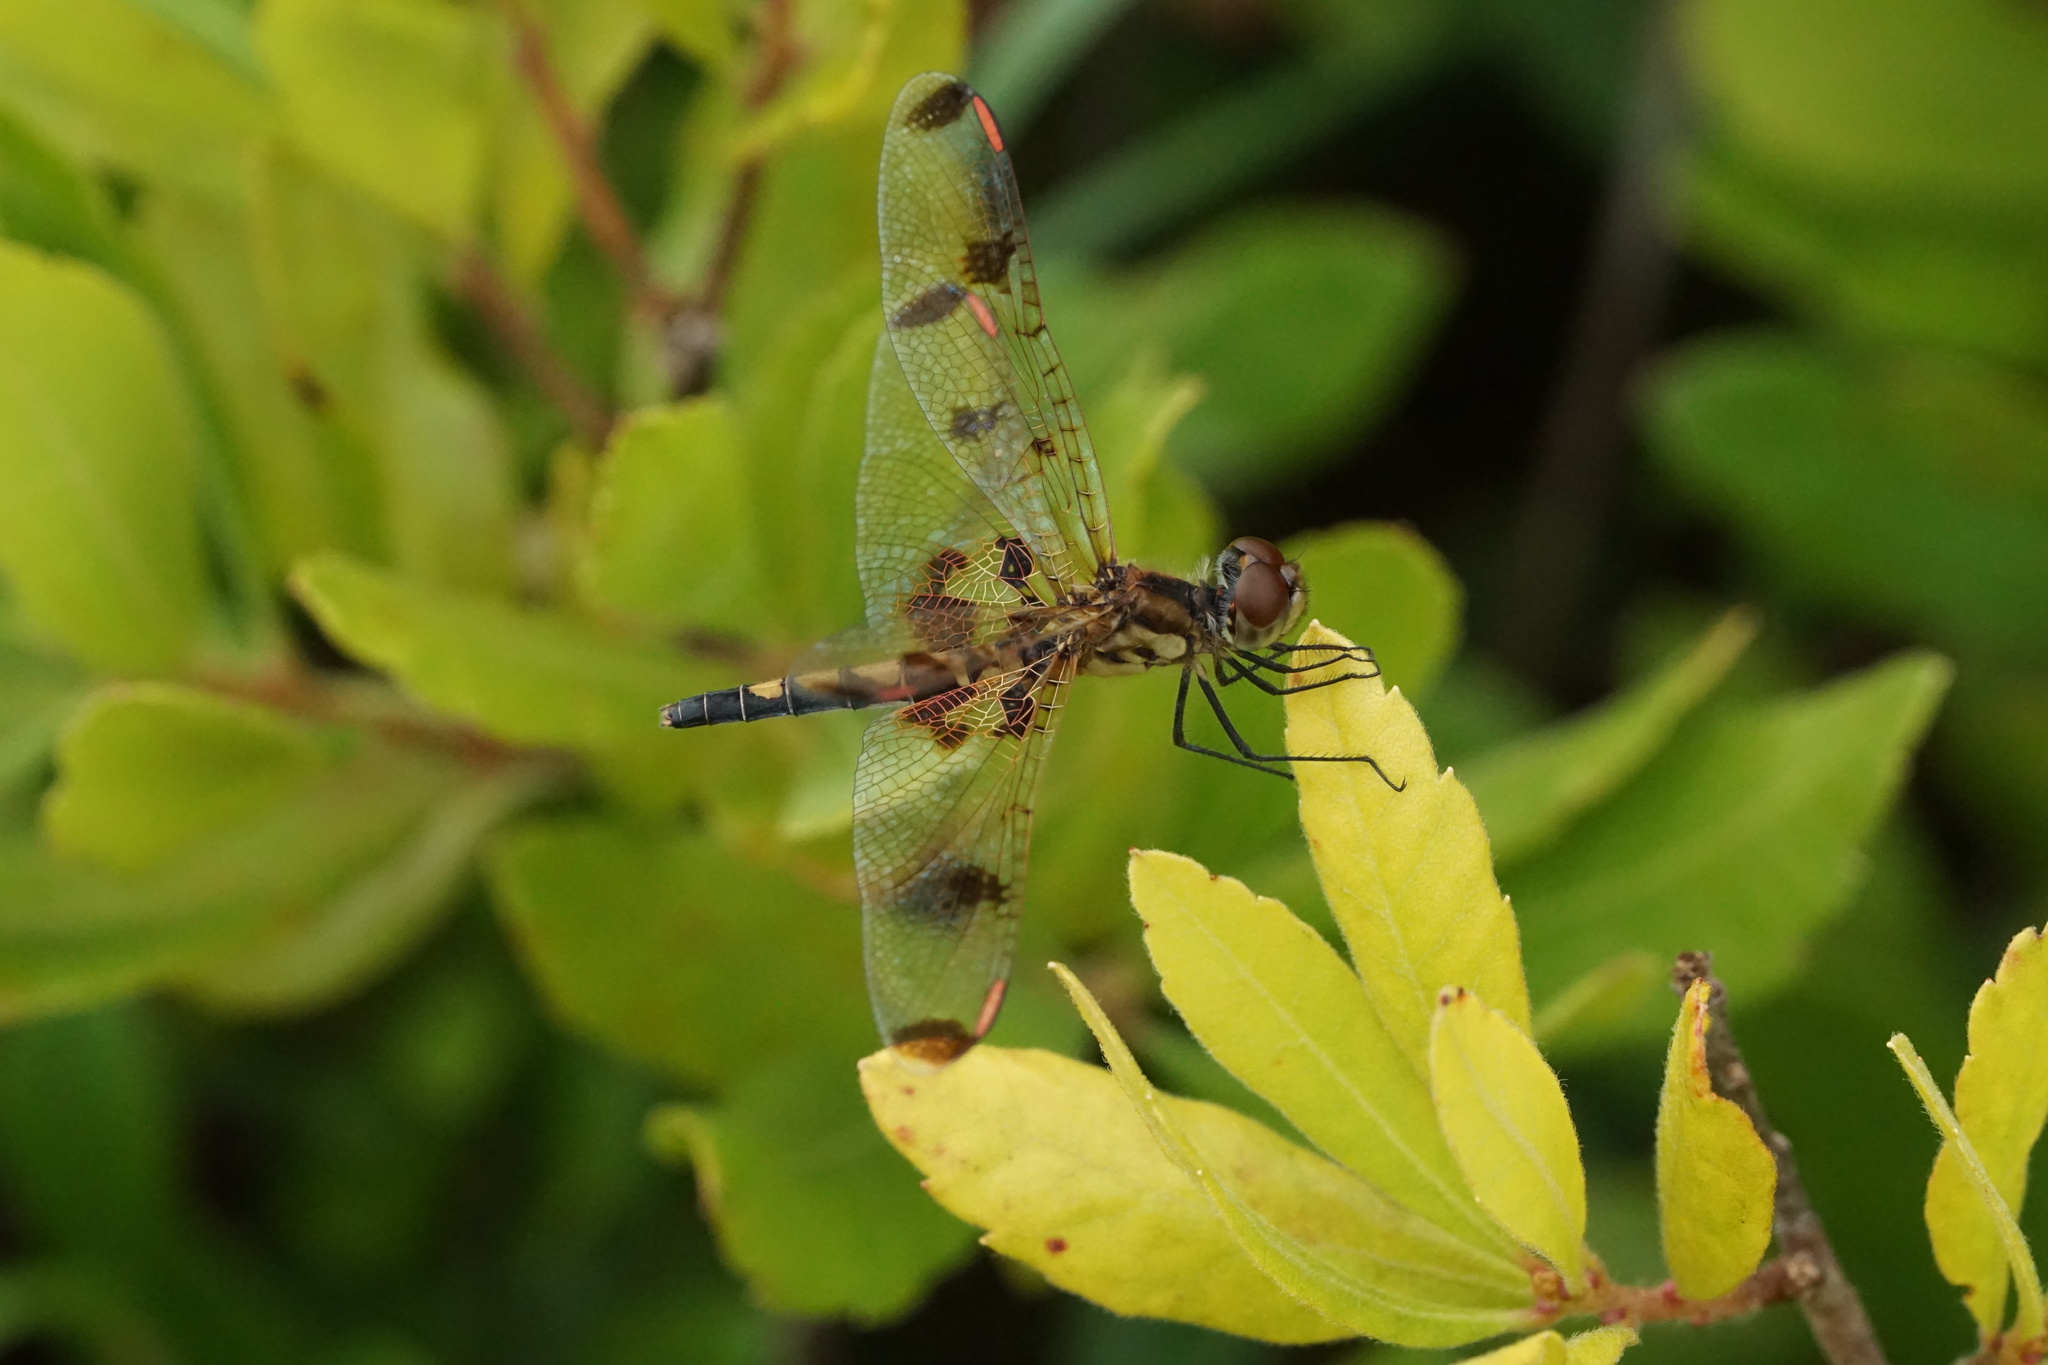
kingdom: Animalia
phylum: Arthropoda
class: Insecta
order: Odonata
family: Libellulidae
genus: Celithemis
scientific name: Celithemis elisa
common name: Calico pennant
